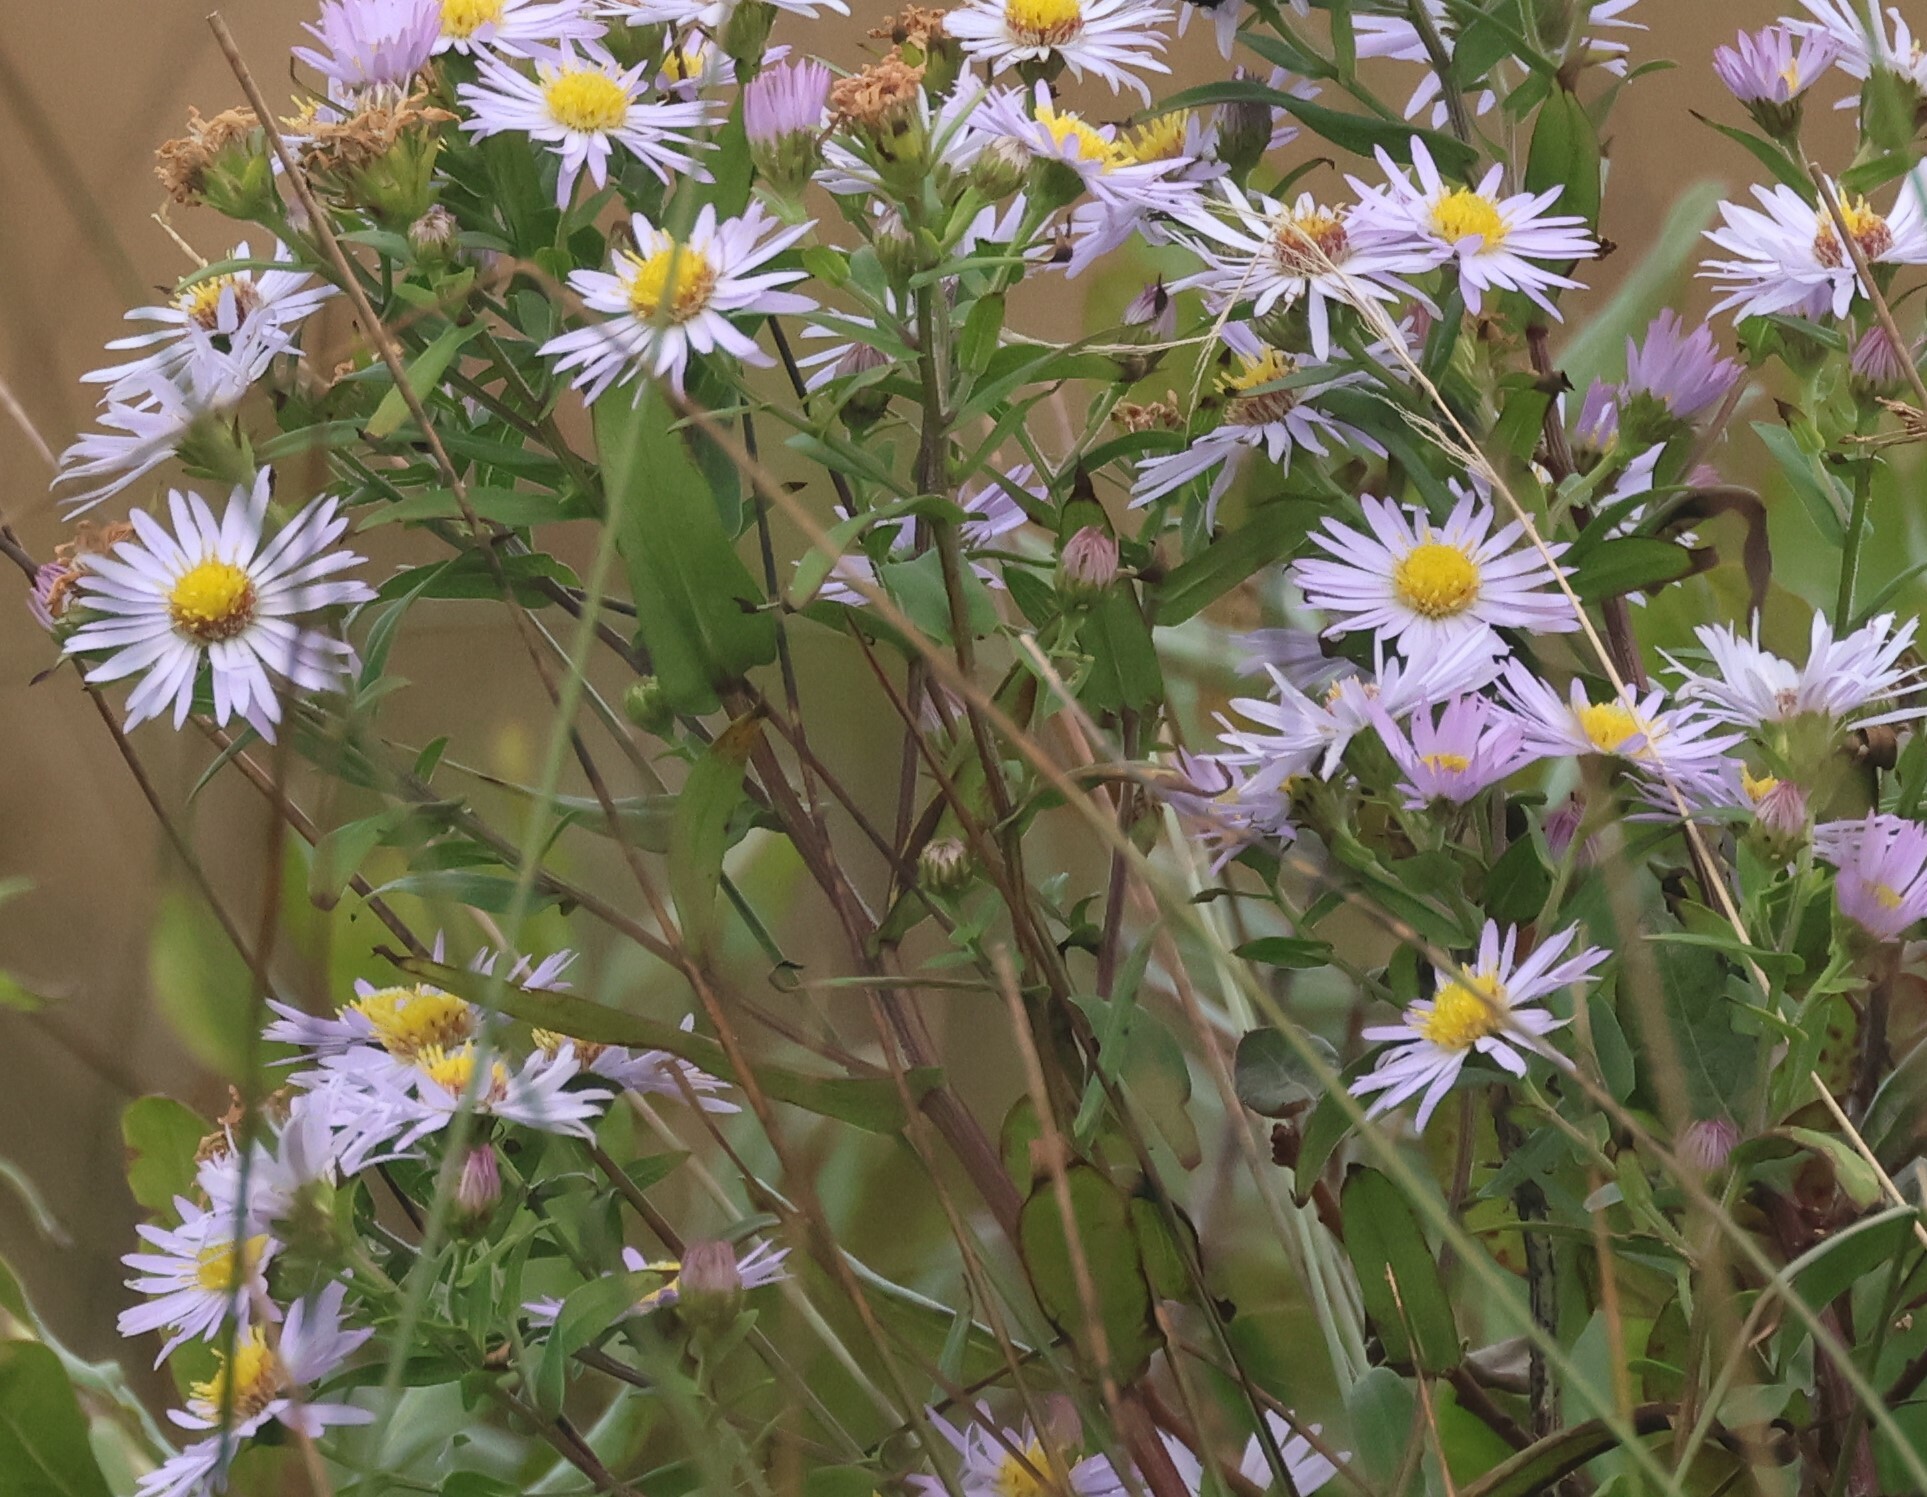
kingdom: Plantae
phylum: Tracheophyta
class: Magnoliopsida
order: Asterales
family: Asteraceae
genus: Symphyotrichum
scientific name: Symphyotrichum novi-belgii
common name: Michaelmas daisy
